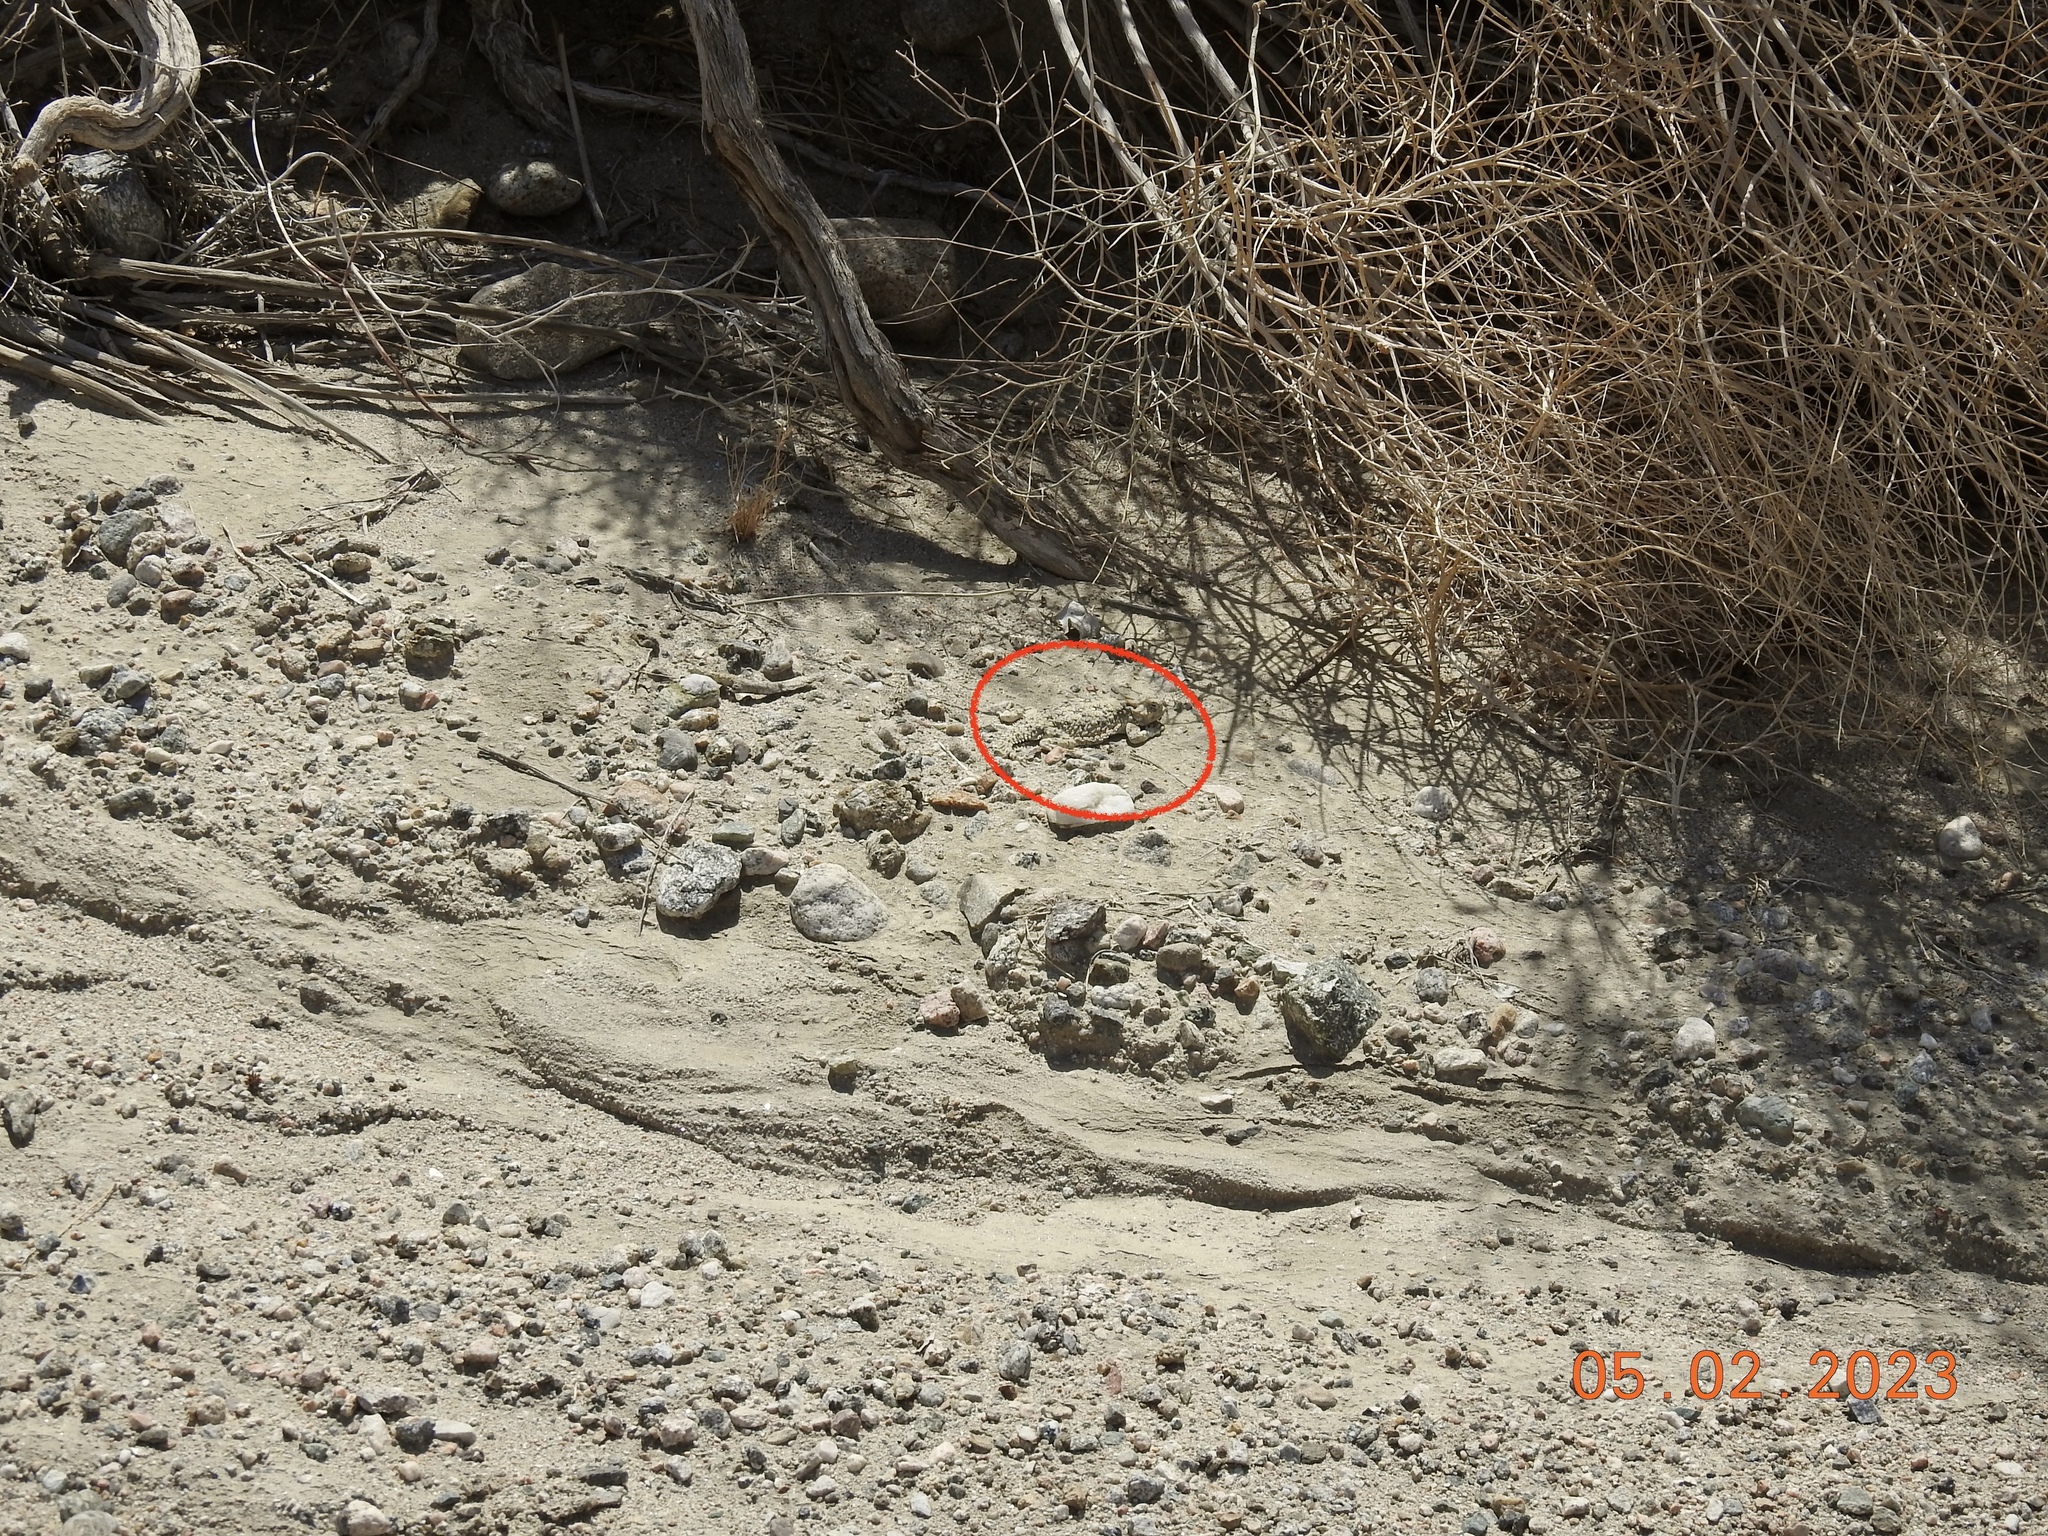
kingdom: Animalia
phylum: Chordata
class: Squamata
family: Phrynosomatidae
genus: Phrynosoma
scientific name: Phrynosoma platyrhinos
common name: Desert horned lizard
